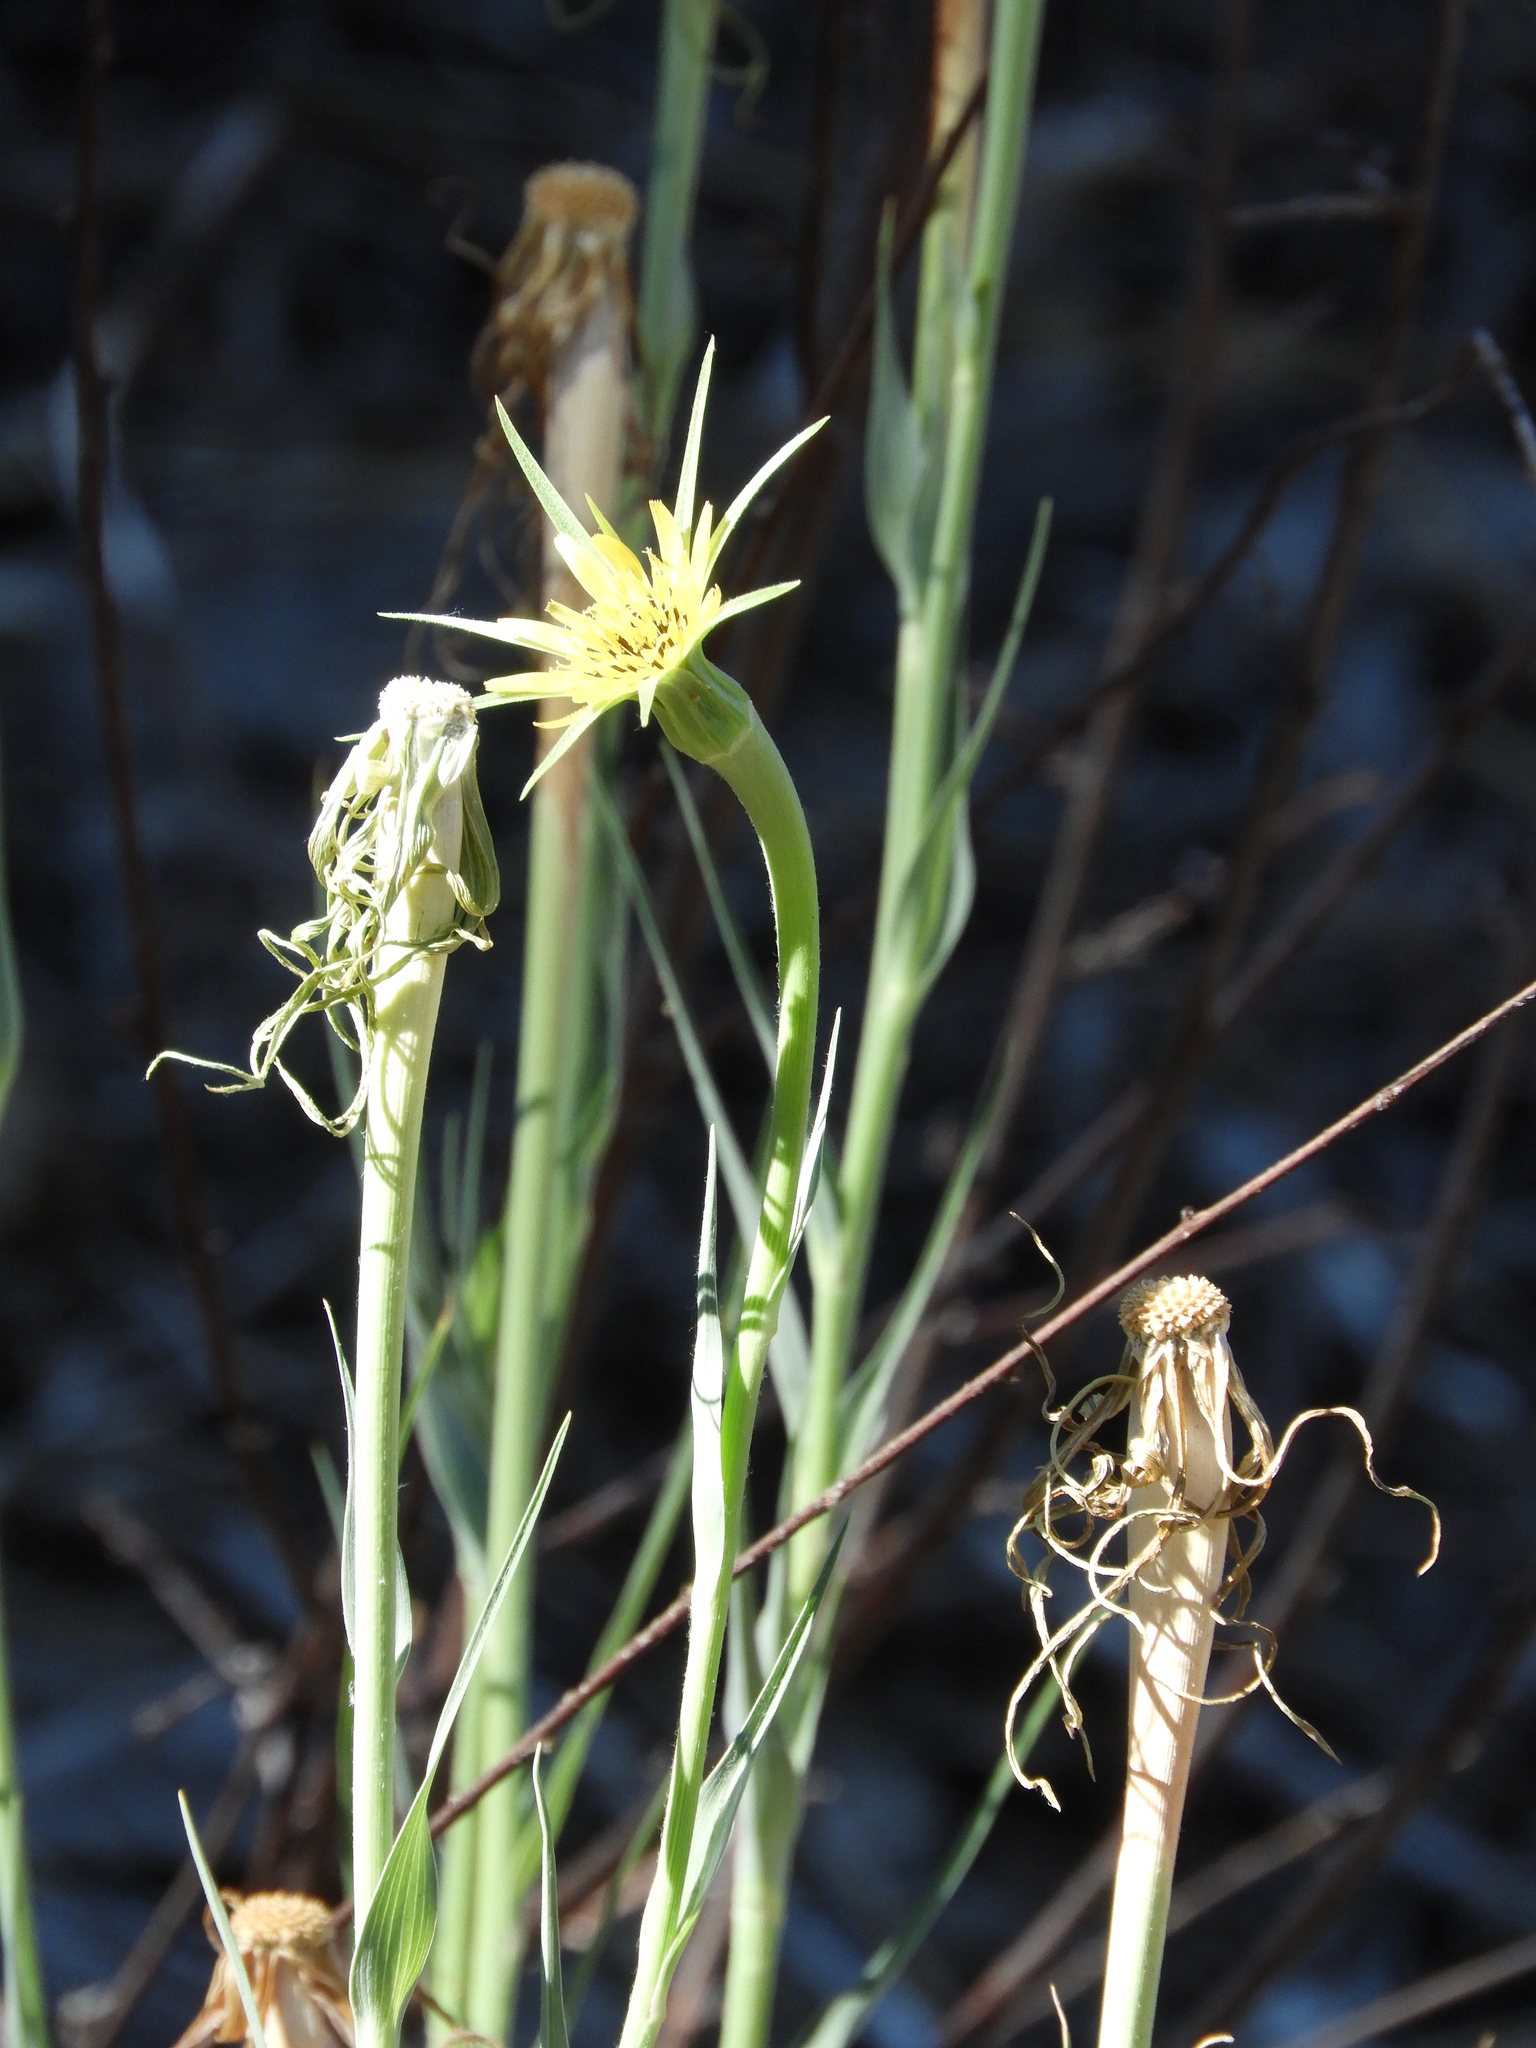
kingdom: Plantae
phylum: Tracheophyta
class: Magnoliopsida
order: Asterales
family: Asteraceae
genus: Tragopogon
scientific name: Tragopogon dubius
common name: Yellow salsify
